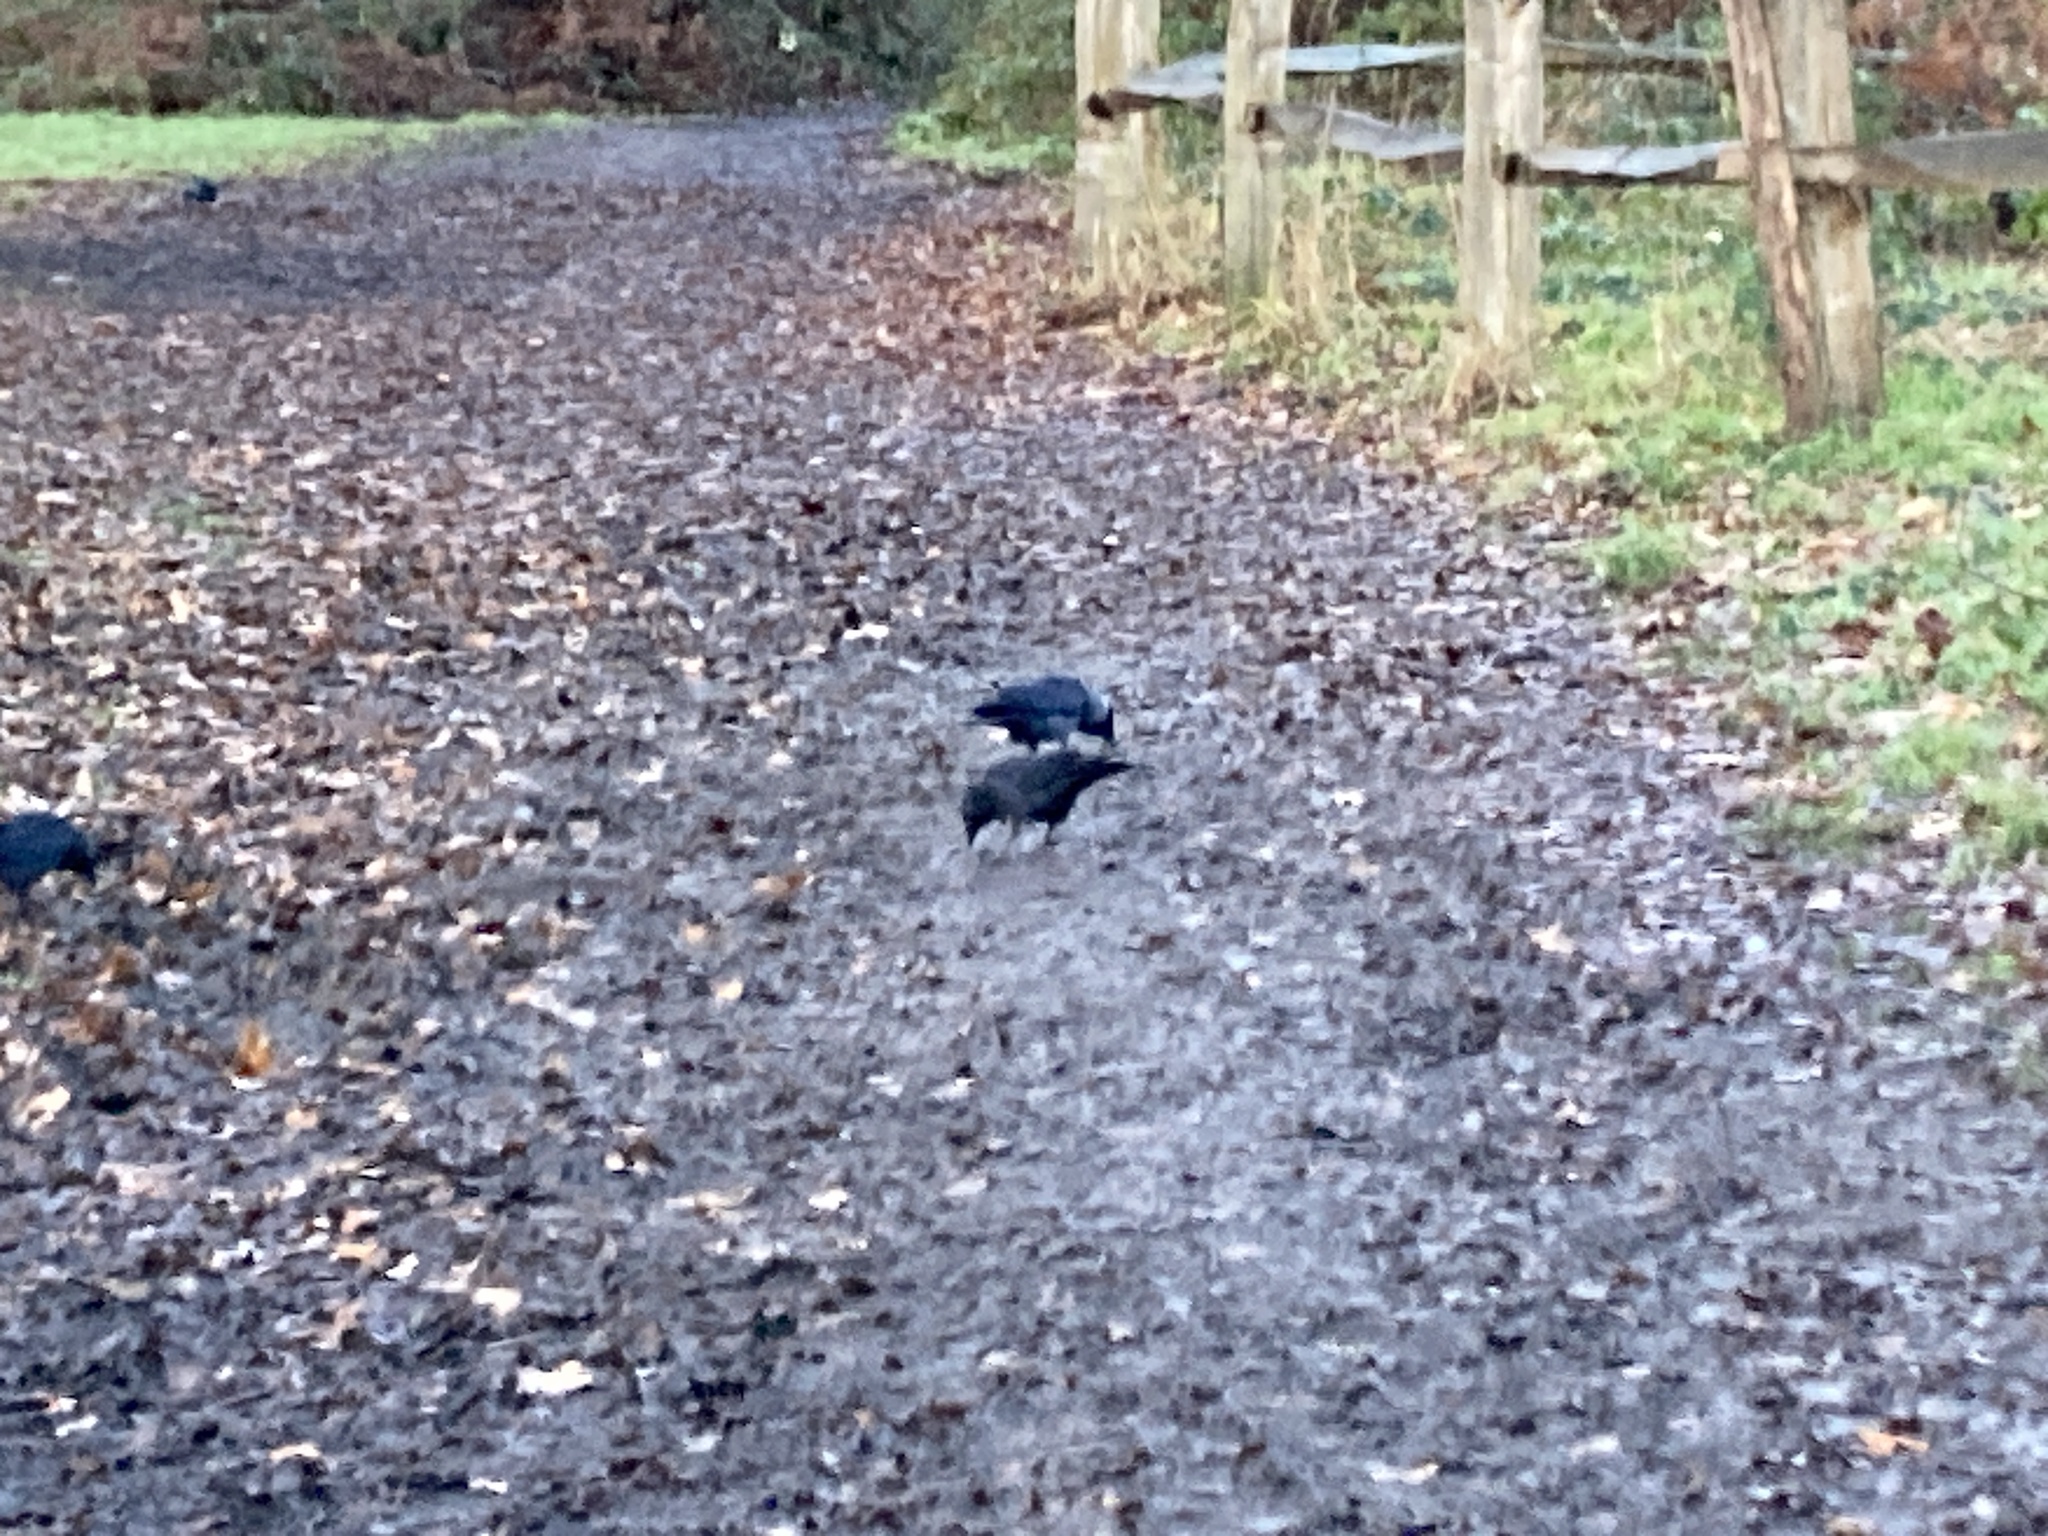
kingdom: Animalia
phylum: Chordata
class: Aves
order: Passeriformes
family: Corvidae
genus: Coloeus
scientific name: Coloeus monedula
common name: Western jackdaw
